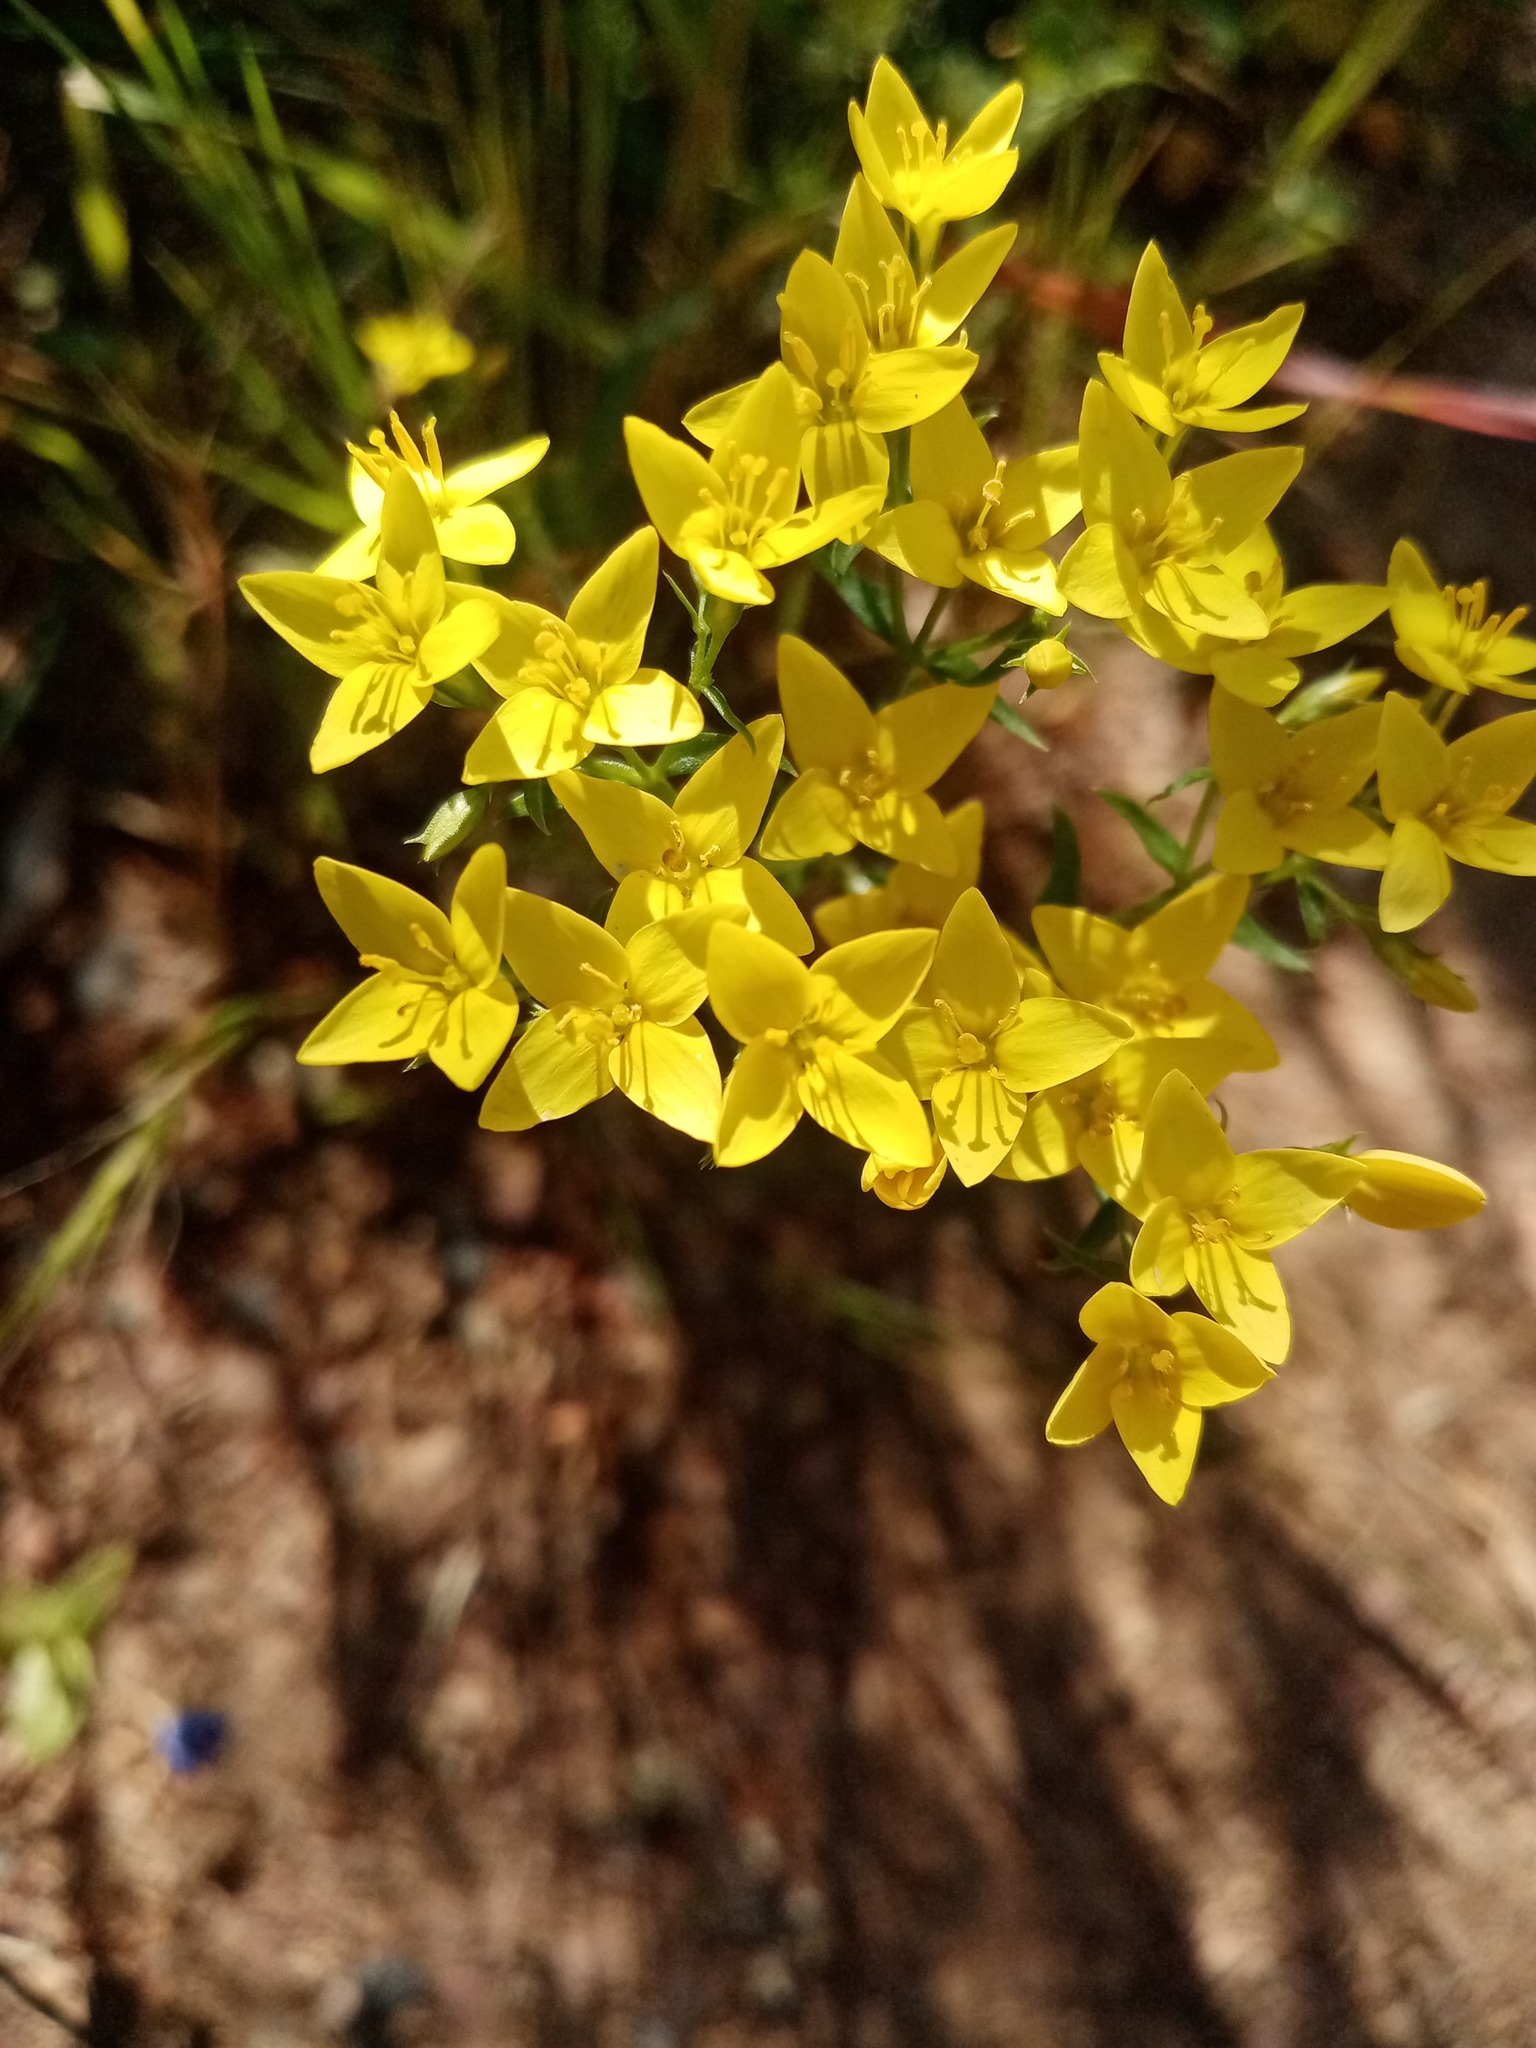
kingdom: Plantae
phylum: Tracheophyta
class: Magnoliopsida
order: Gentianales
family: Gentianaceae
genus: Sebaea
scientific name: Sebaea aurea
